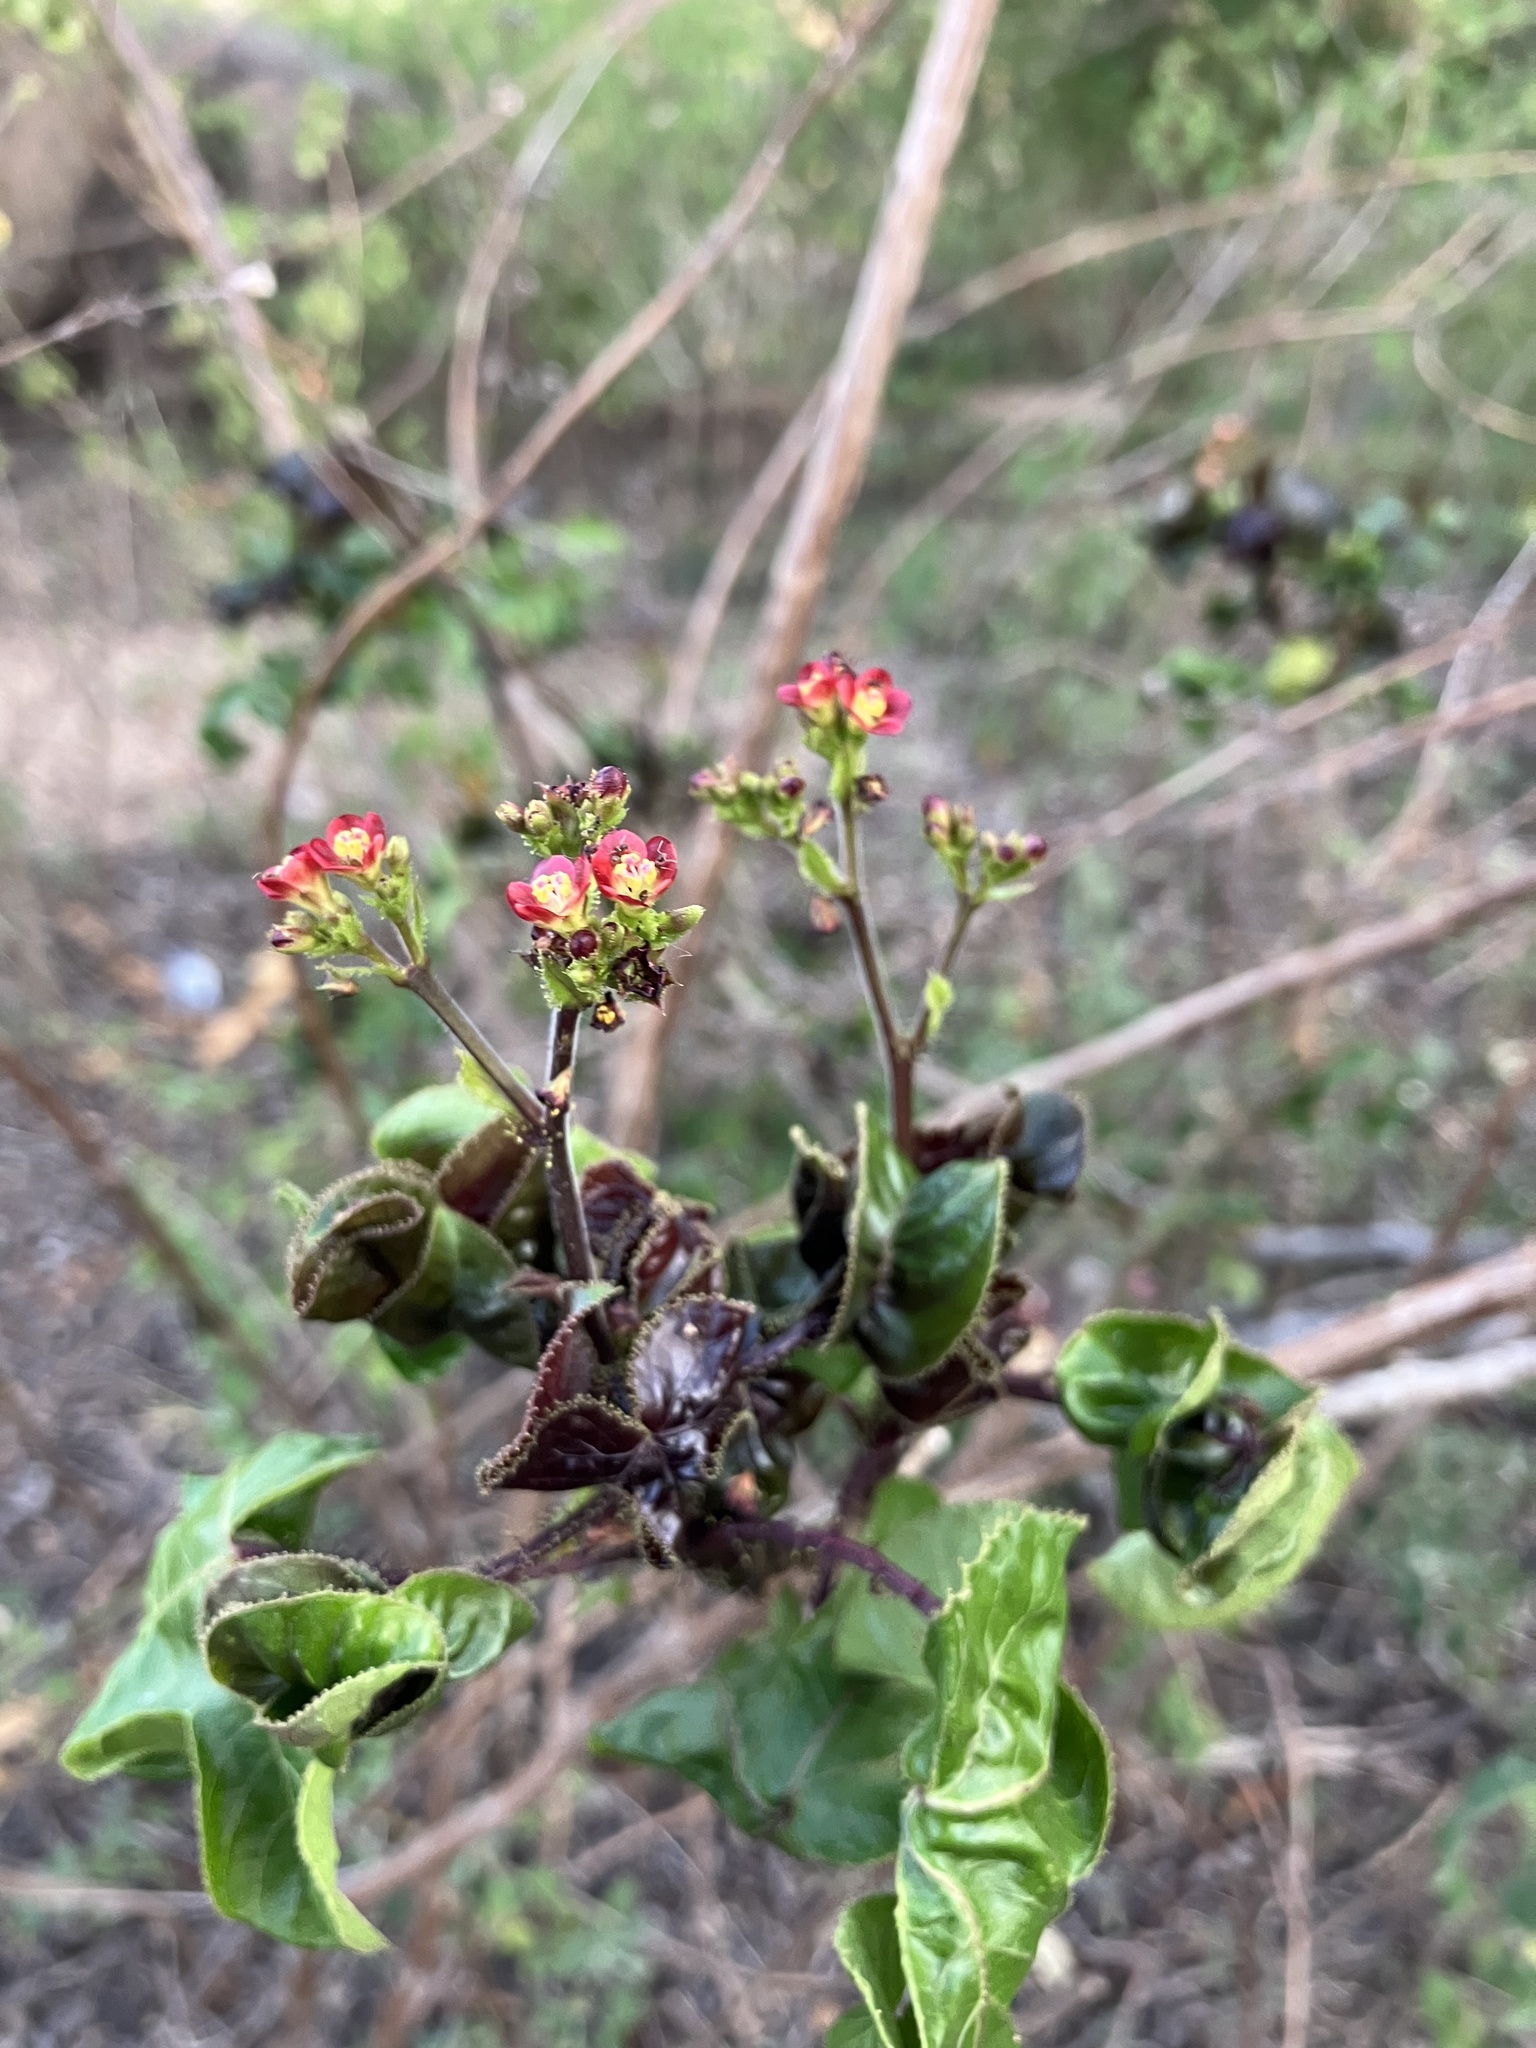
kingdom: Plantae
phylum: Tracheophyta
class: Magnoliopsida
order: Malpighiales
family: Euphorbiaceae
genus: Jatropha
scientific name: Jatropha gossypiifolia
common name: Bellyache bush
